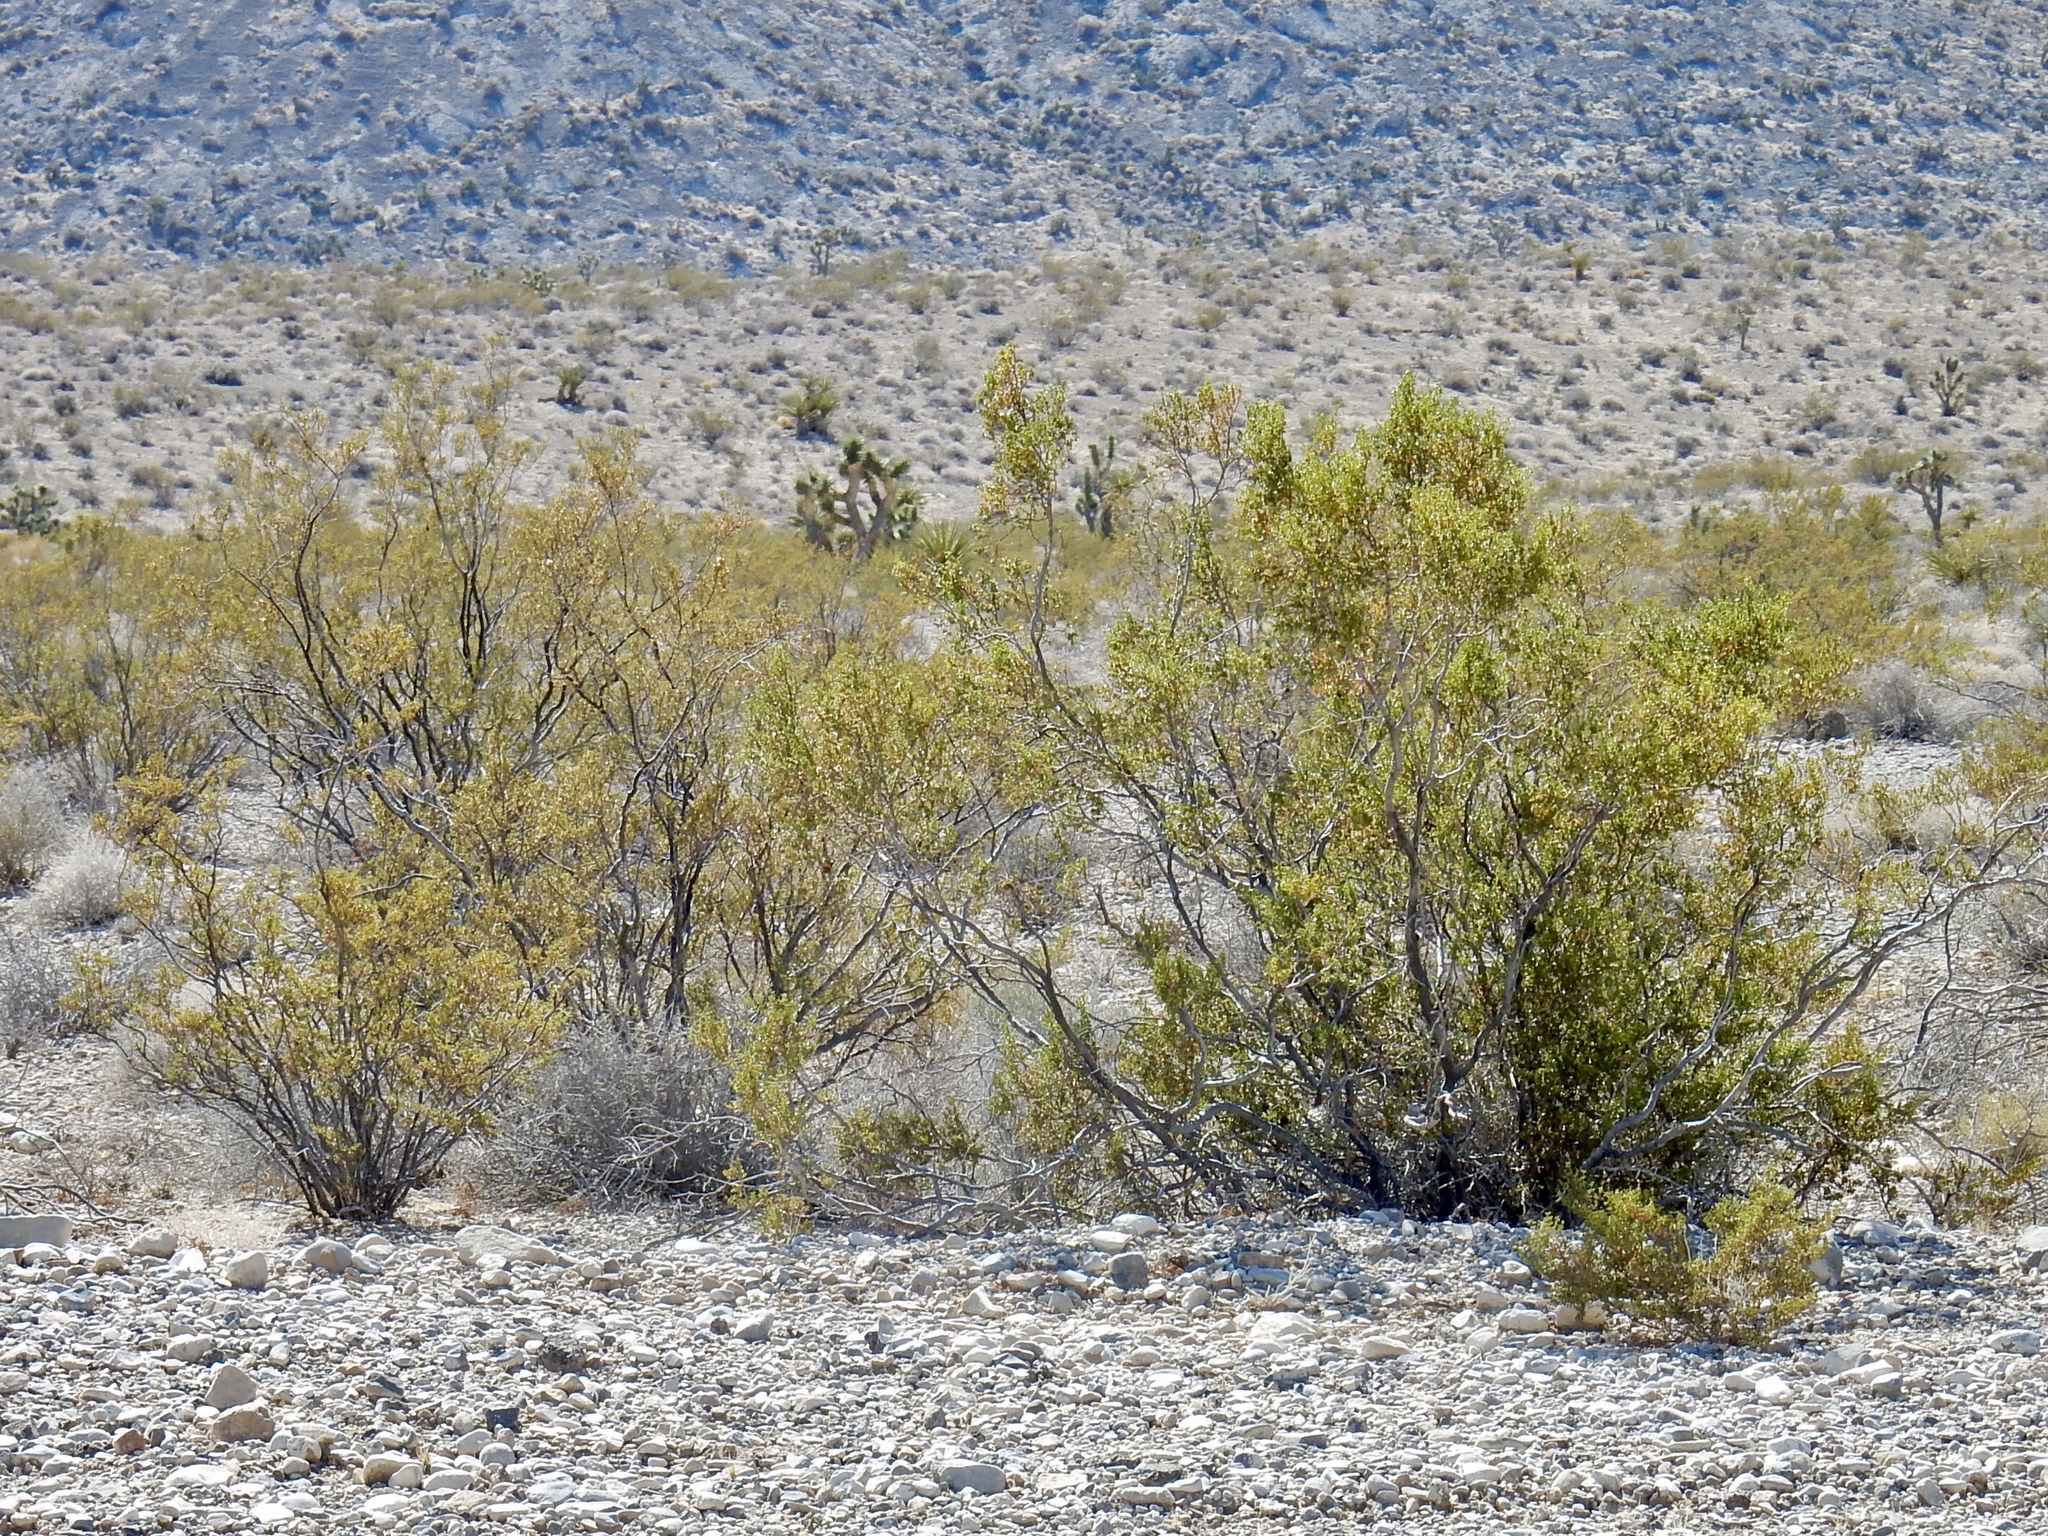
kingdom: Plantae
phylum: Tracheophyta
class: Magnoliopsida
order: Zygophyllales
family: Zygophyllaceae
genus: Larrea
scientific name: Larrea tridentata
